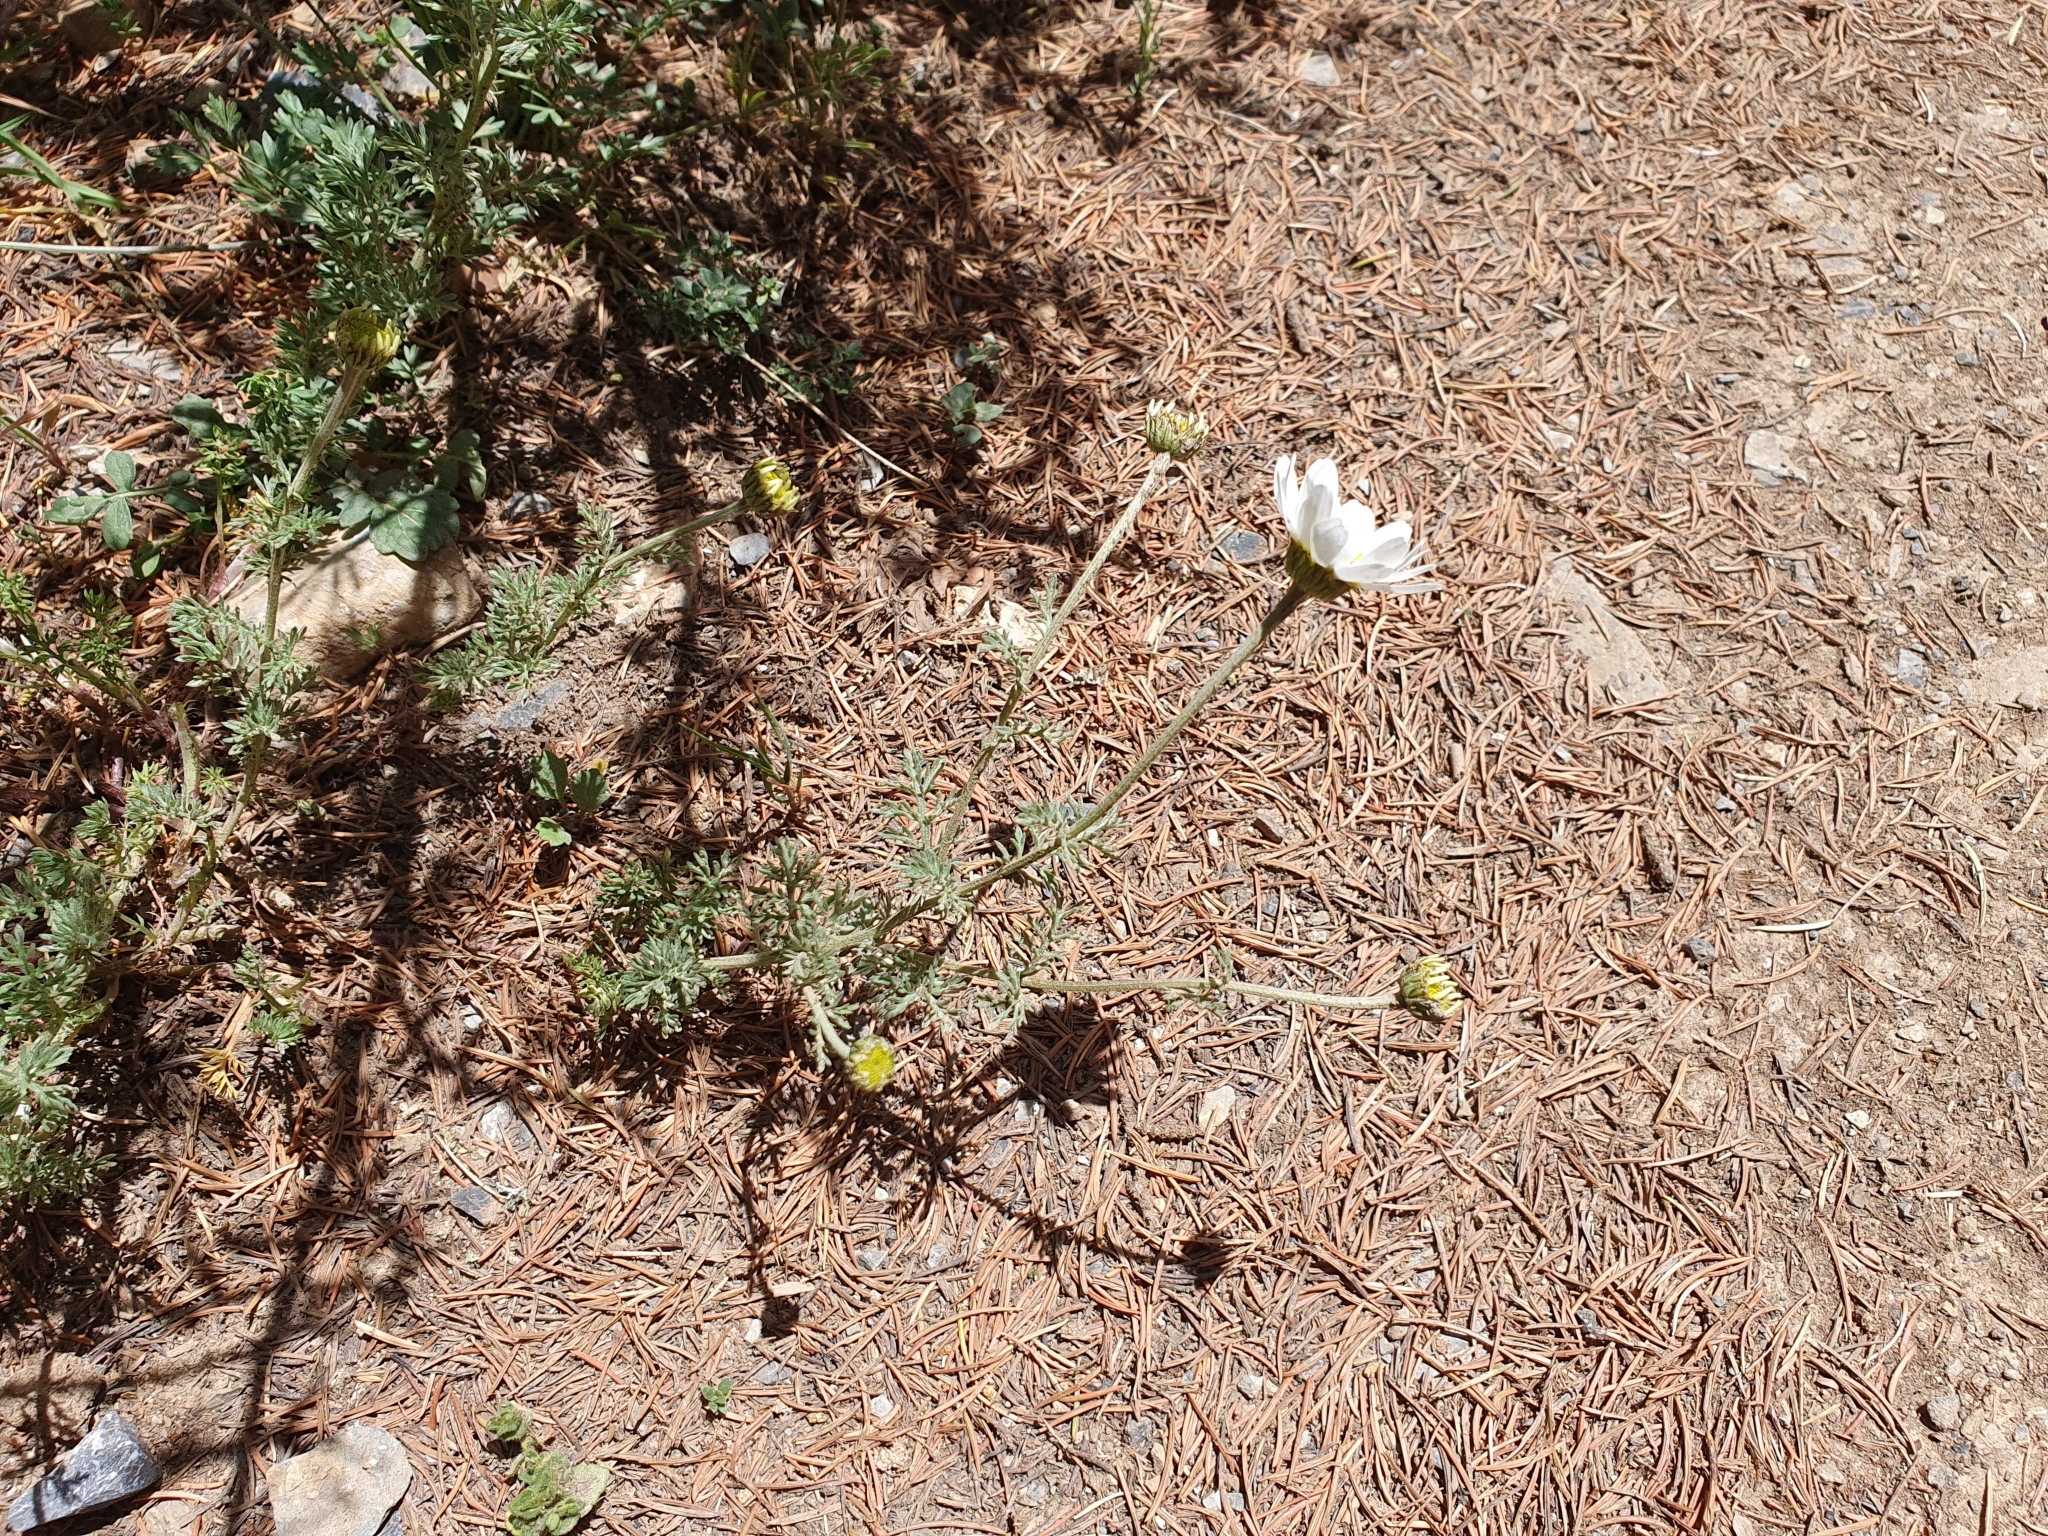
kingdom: Plantae
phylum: Tracheophyta
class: Magnoliopsida
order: Asterales
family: Asteraceae
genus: Anthemis
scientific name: Anthemis pedunculata
